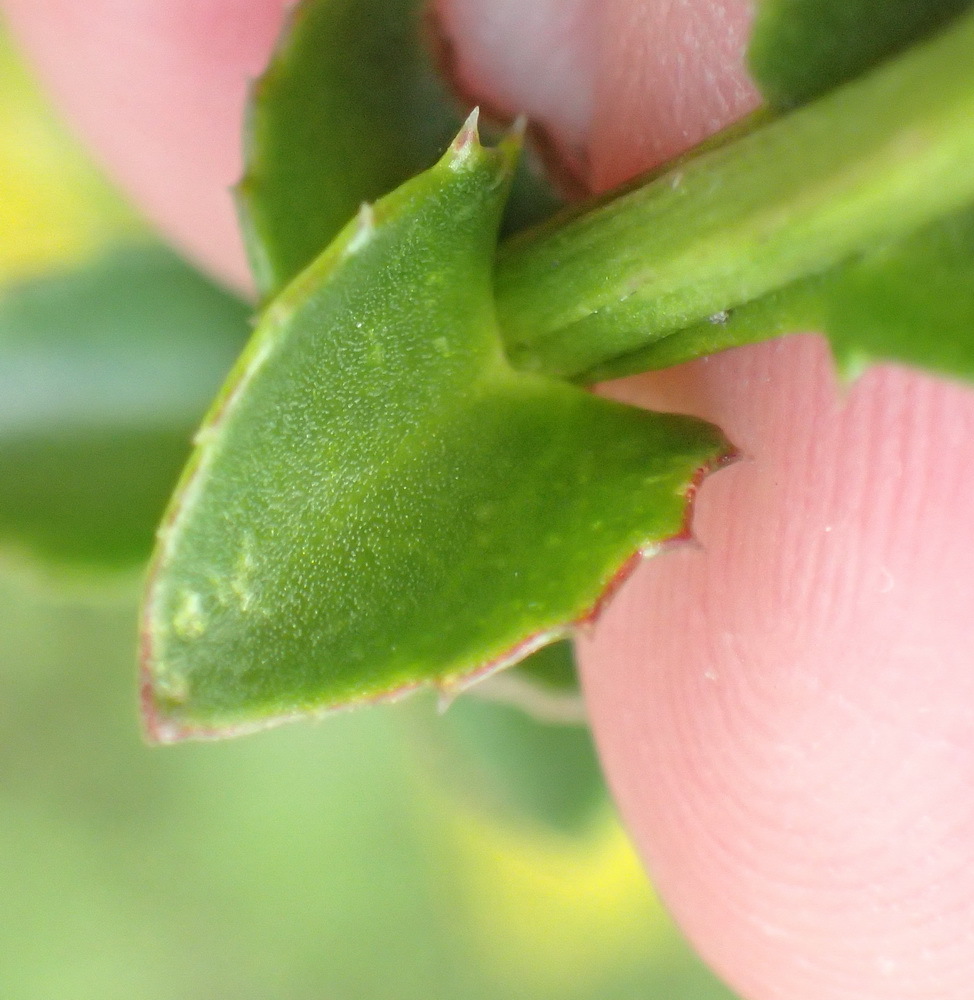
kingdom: Plantae
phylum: Tracheophyta
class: Magnoliopsida
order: Asterales
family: Asteraceae
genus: Athanasia
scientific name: Athanasia dentata
